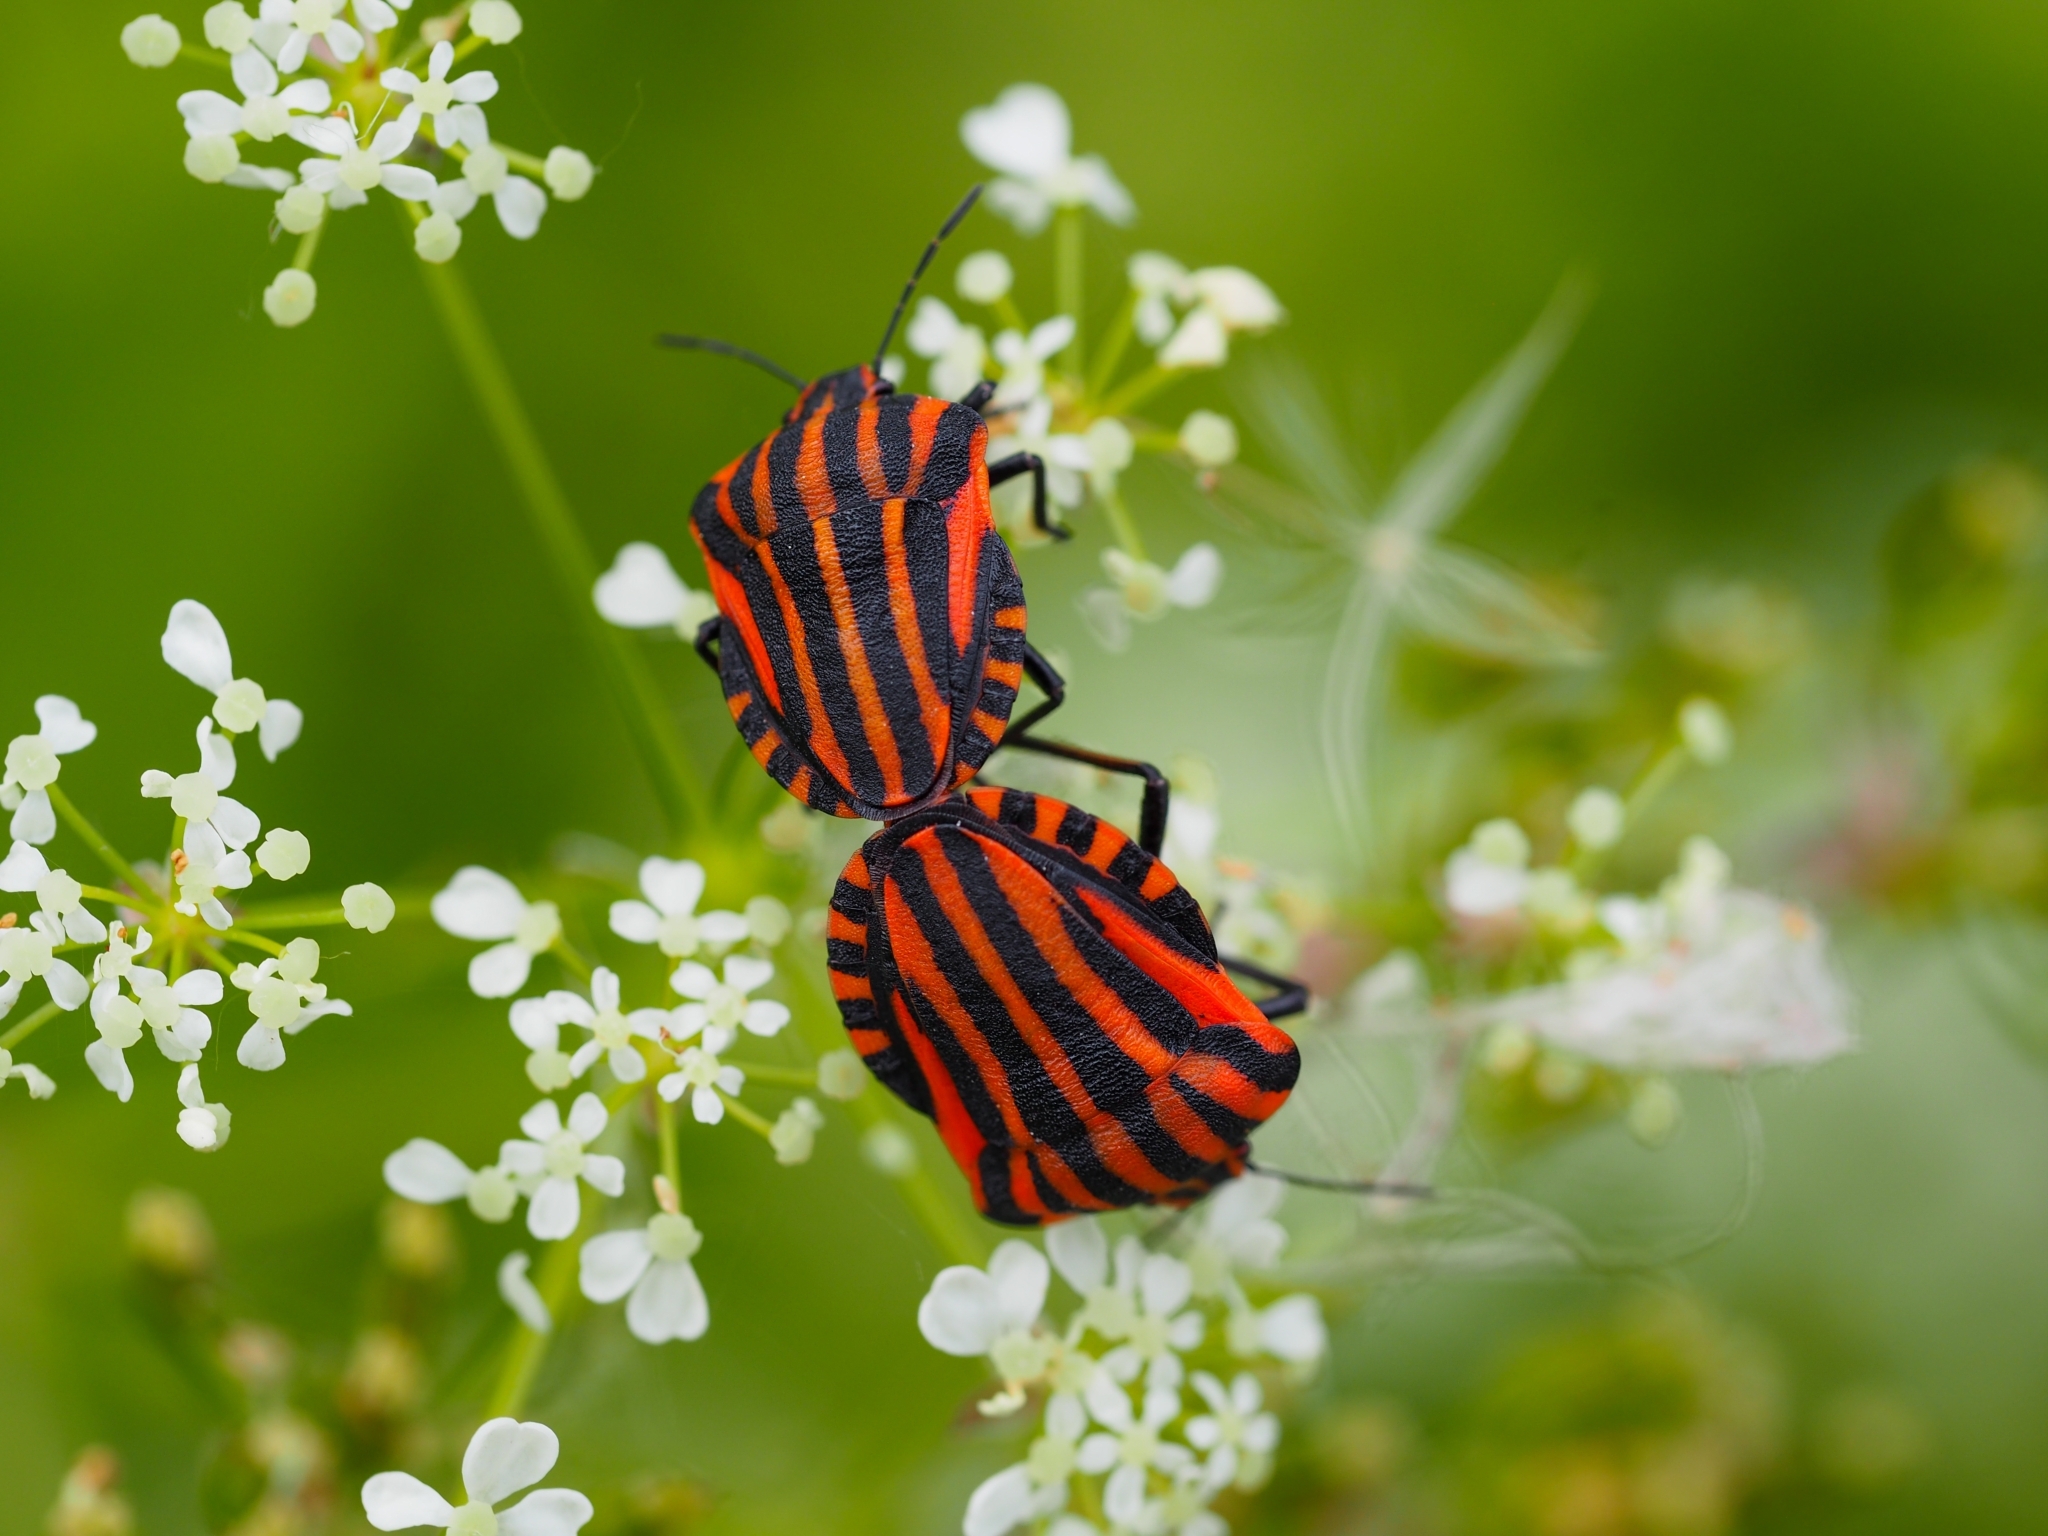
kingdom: Animalia
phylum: Arthropoda
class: Insecta
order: Hemiptera
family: Pentatomidae
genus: Graphosoma
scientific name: Graphosoma italicum
